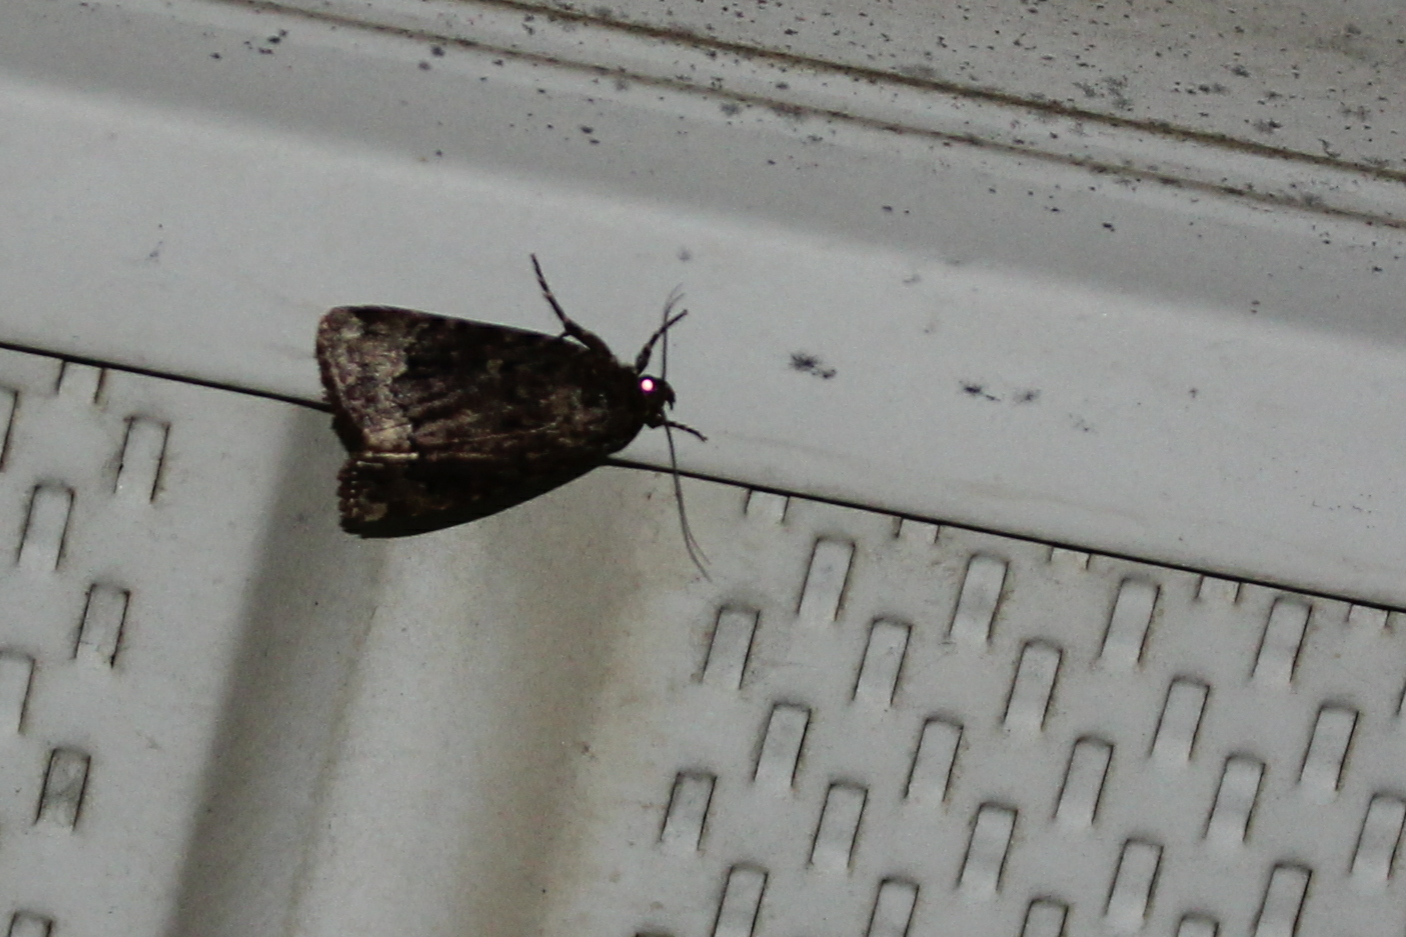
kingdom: Animalia
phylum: Arthropoda
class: Insecta
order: Lepidoptera
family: Noctuidae
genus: Amphipyra
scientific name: Amphipyra pyramidoides
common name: American copper underwing
